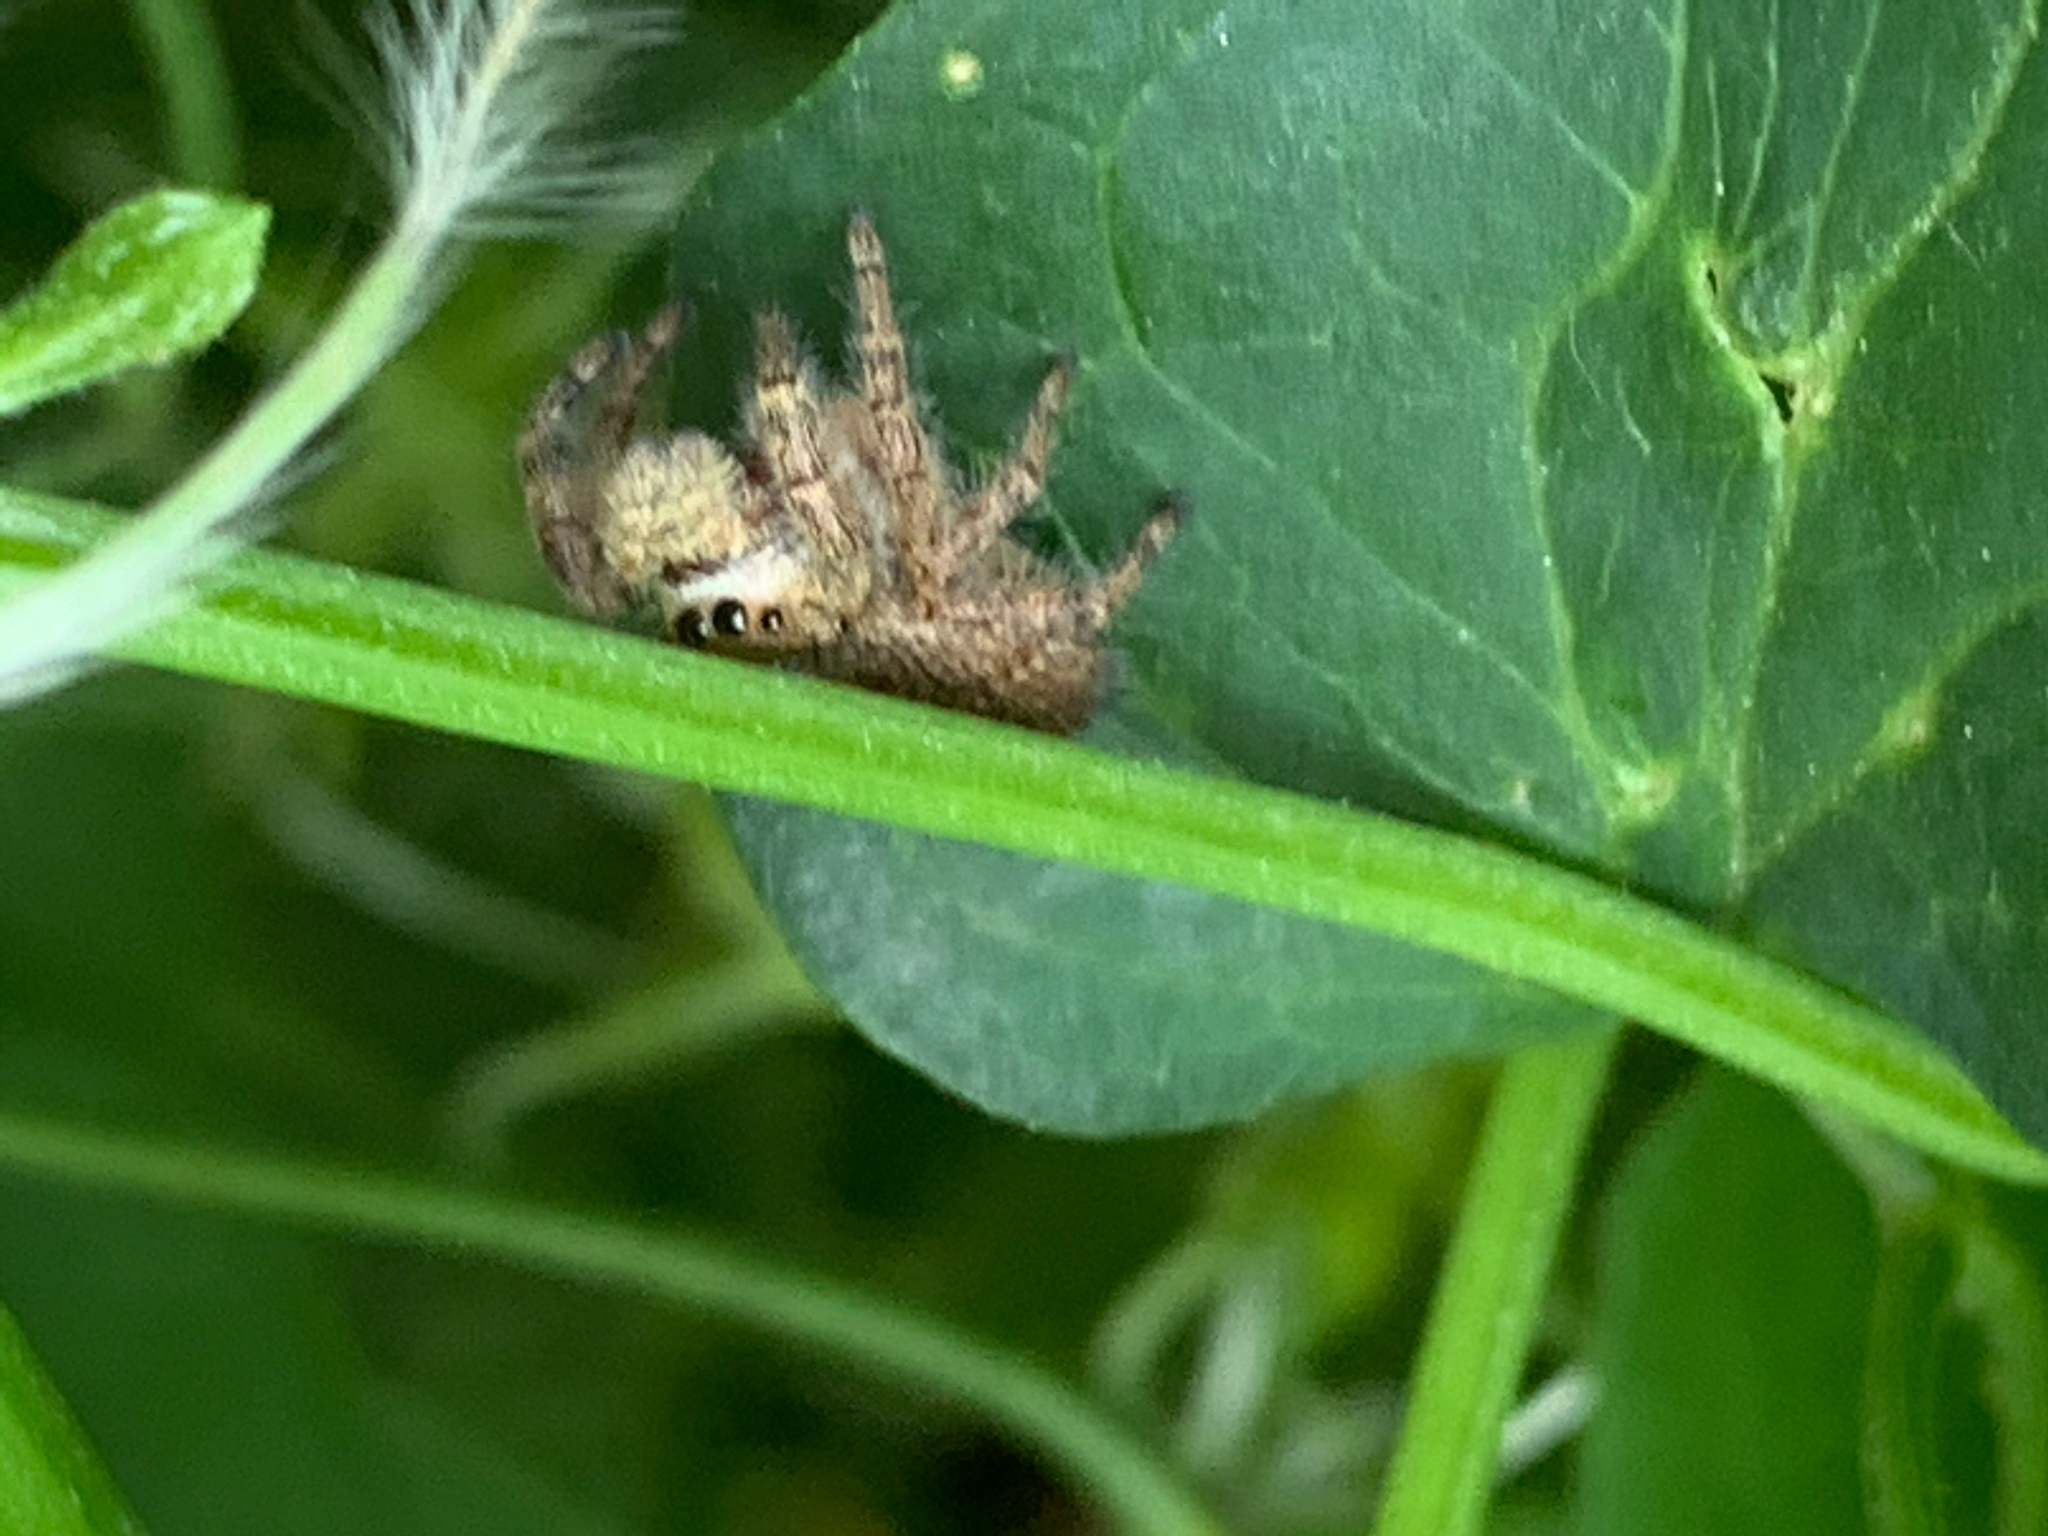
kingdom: Animalia
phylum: Arthropoda
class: Arachnida
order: Araneae
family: Salticidae
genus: Phidippus
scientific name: Phidippus princeps
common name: Grayish jumping spider
